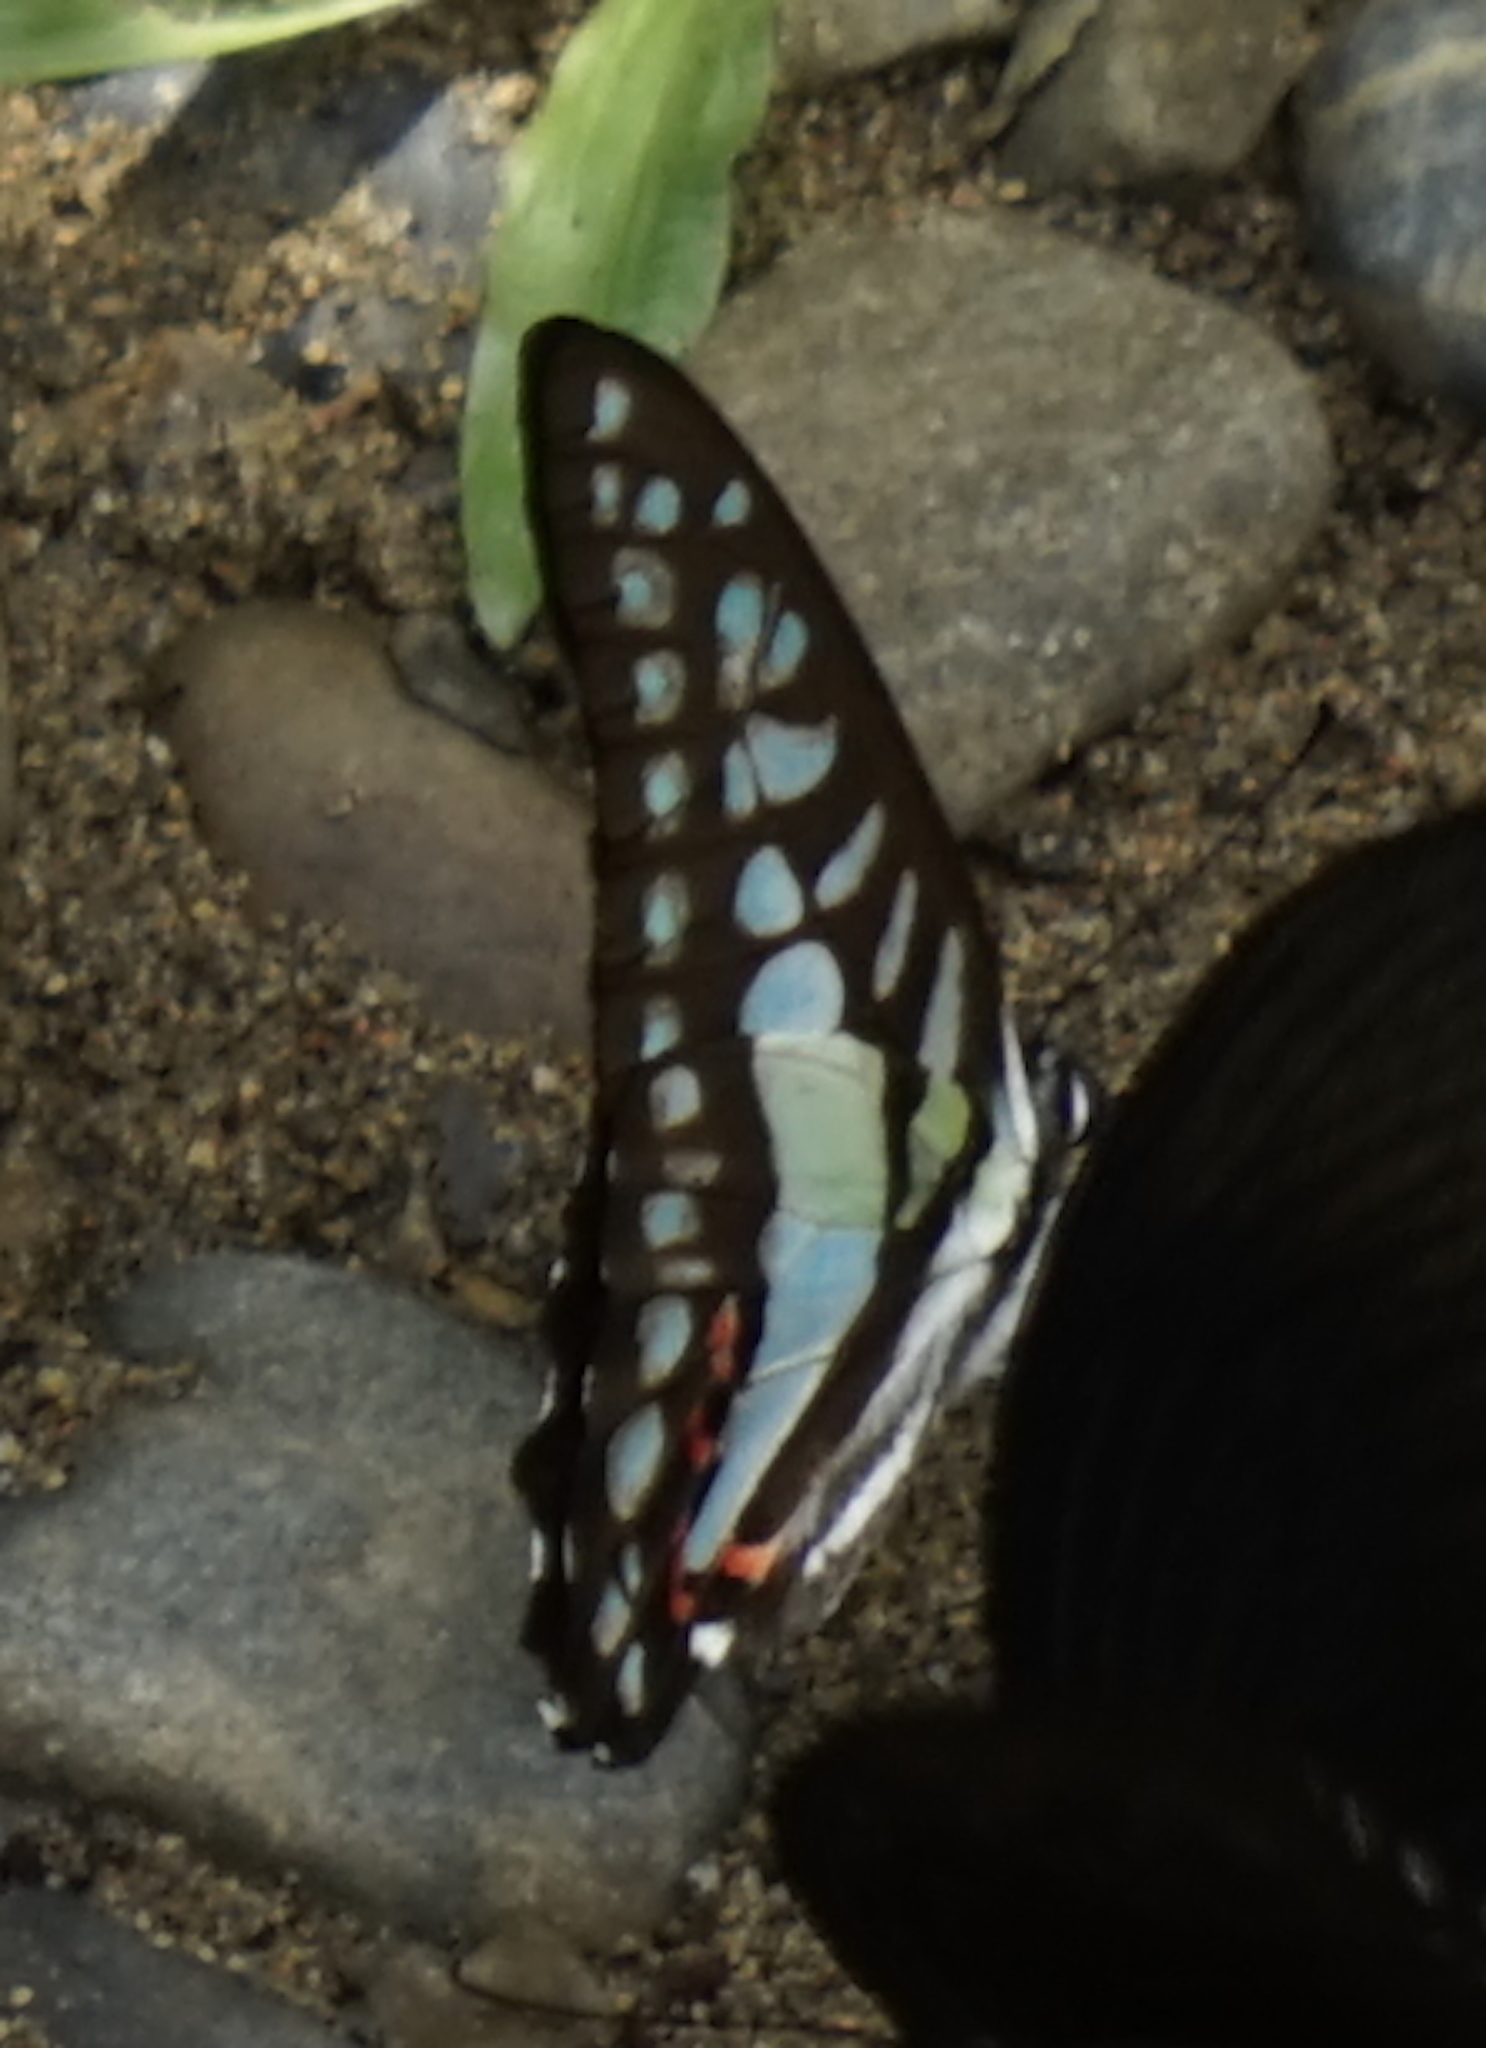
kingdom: Animalia
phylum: Arthropoda
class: Insecta
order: Lepidoptera
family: Papilionidae
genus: Graphium
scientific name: Graphium evemon
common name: Lesser jay
